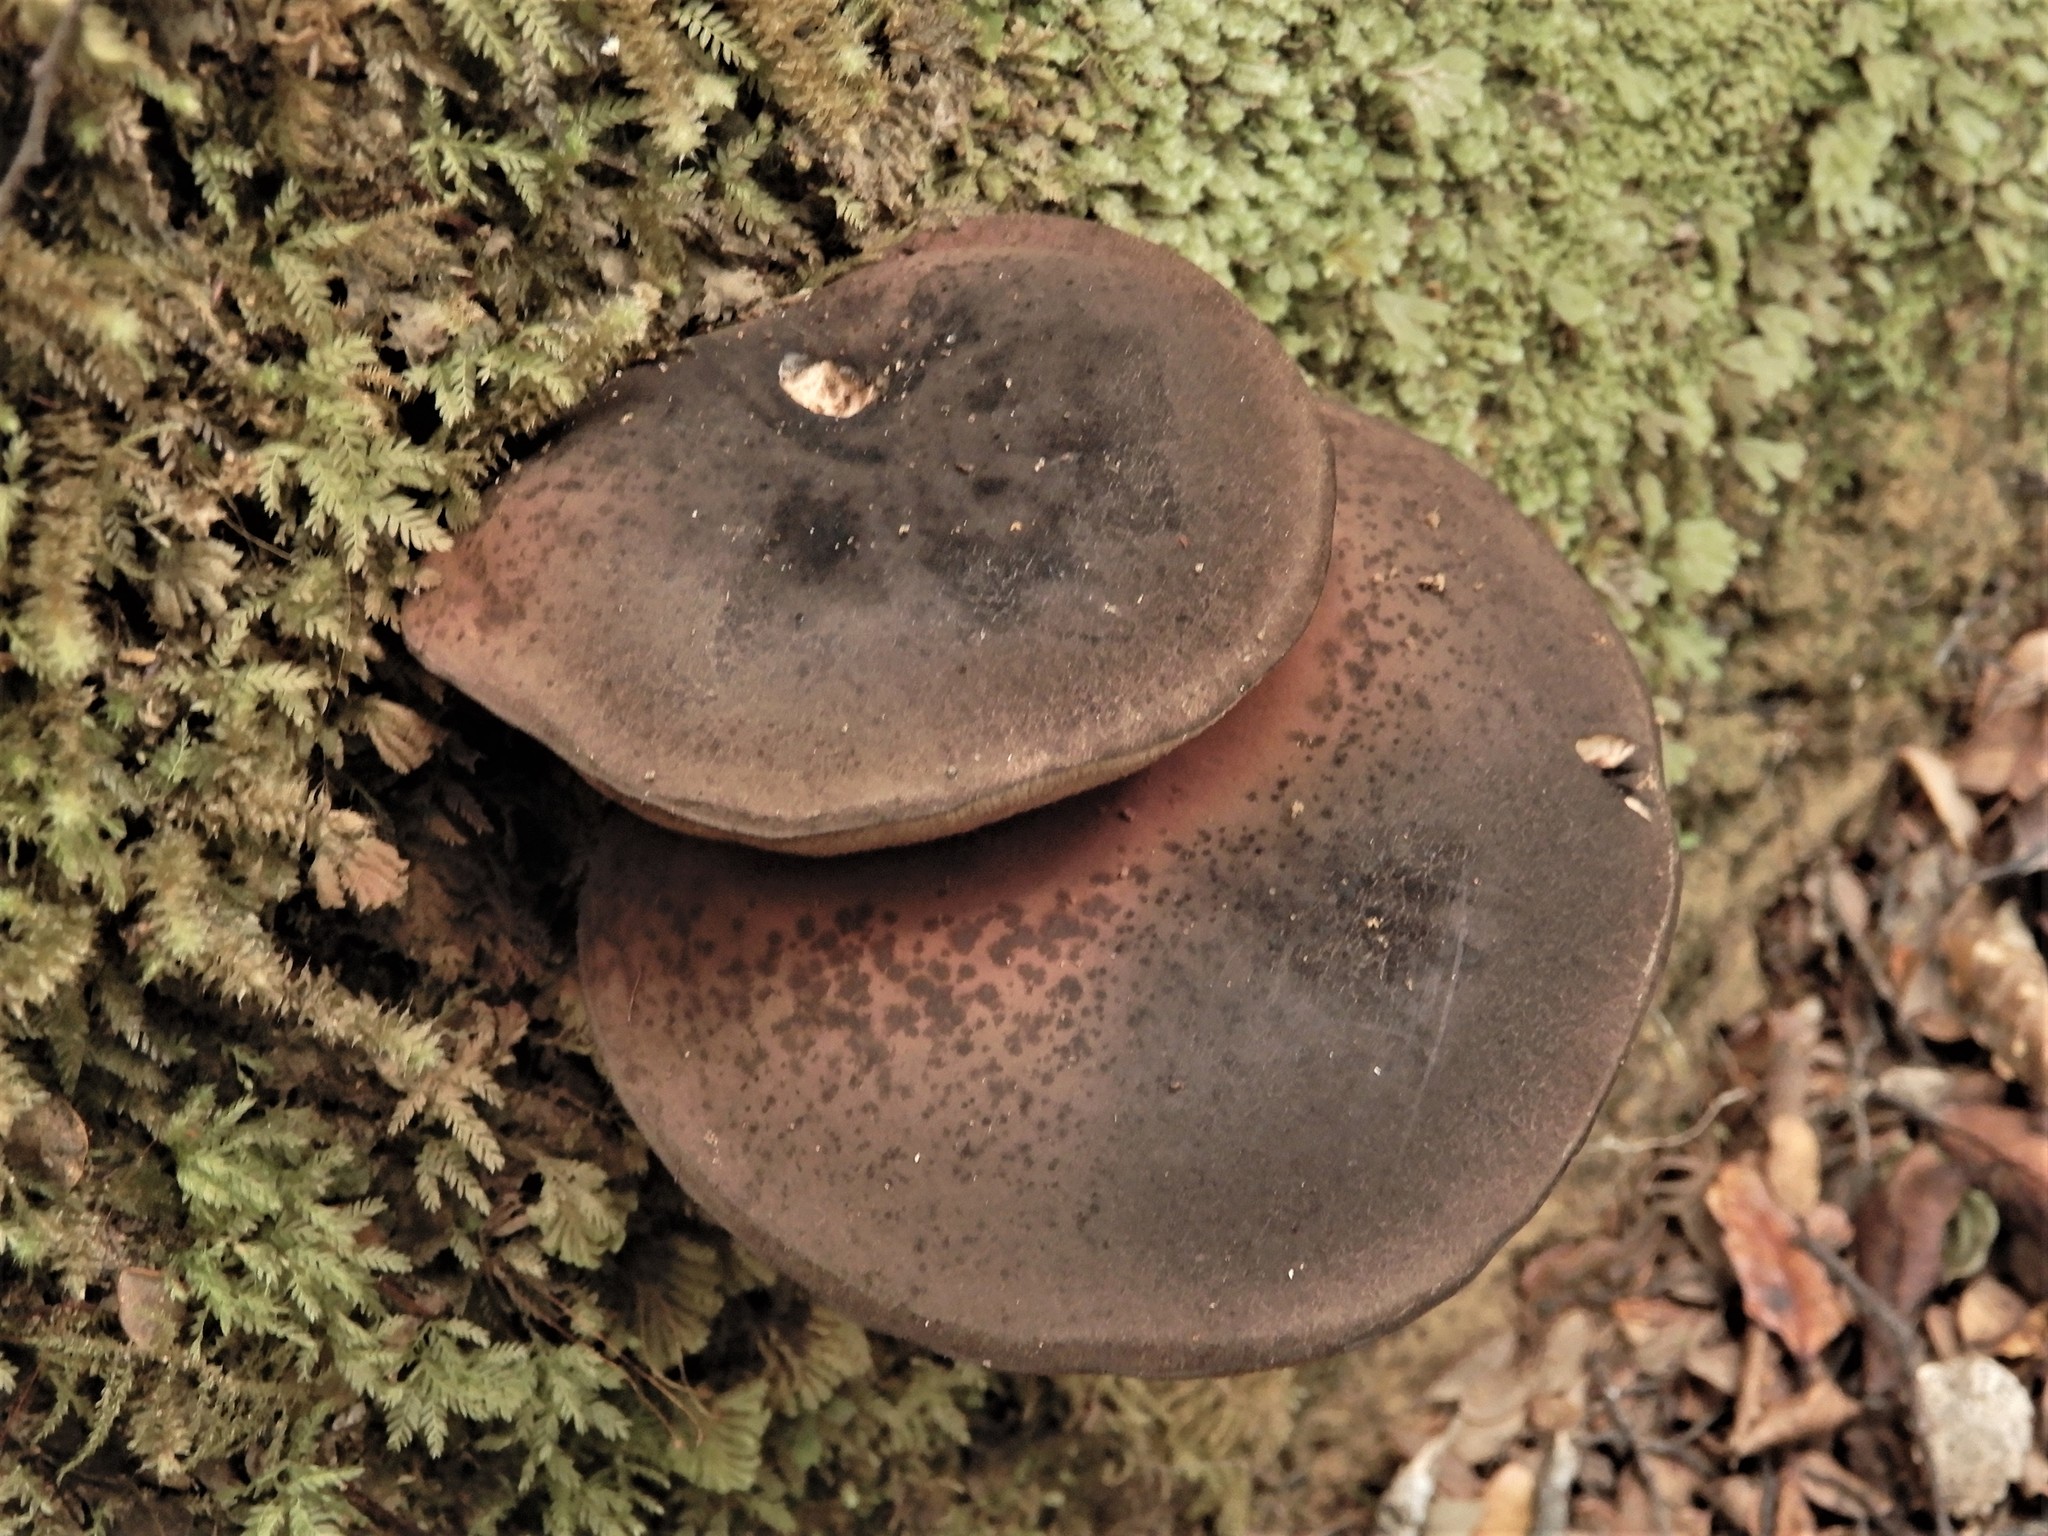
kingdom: Fungi
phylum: Basidiomycota
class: Agaricomycetes
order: Boletales
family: Boletaceae
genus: Porphyrellus
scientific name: Porphyrellus formosus
